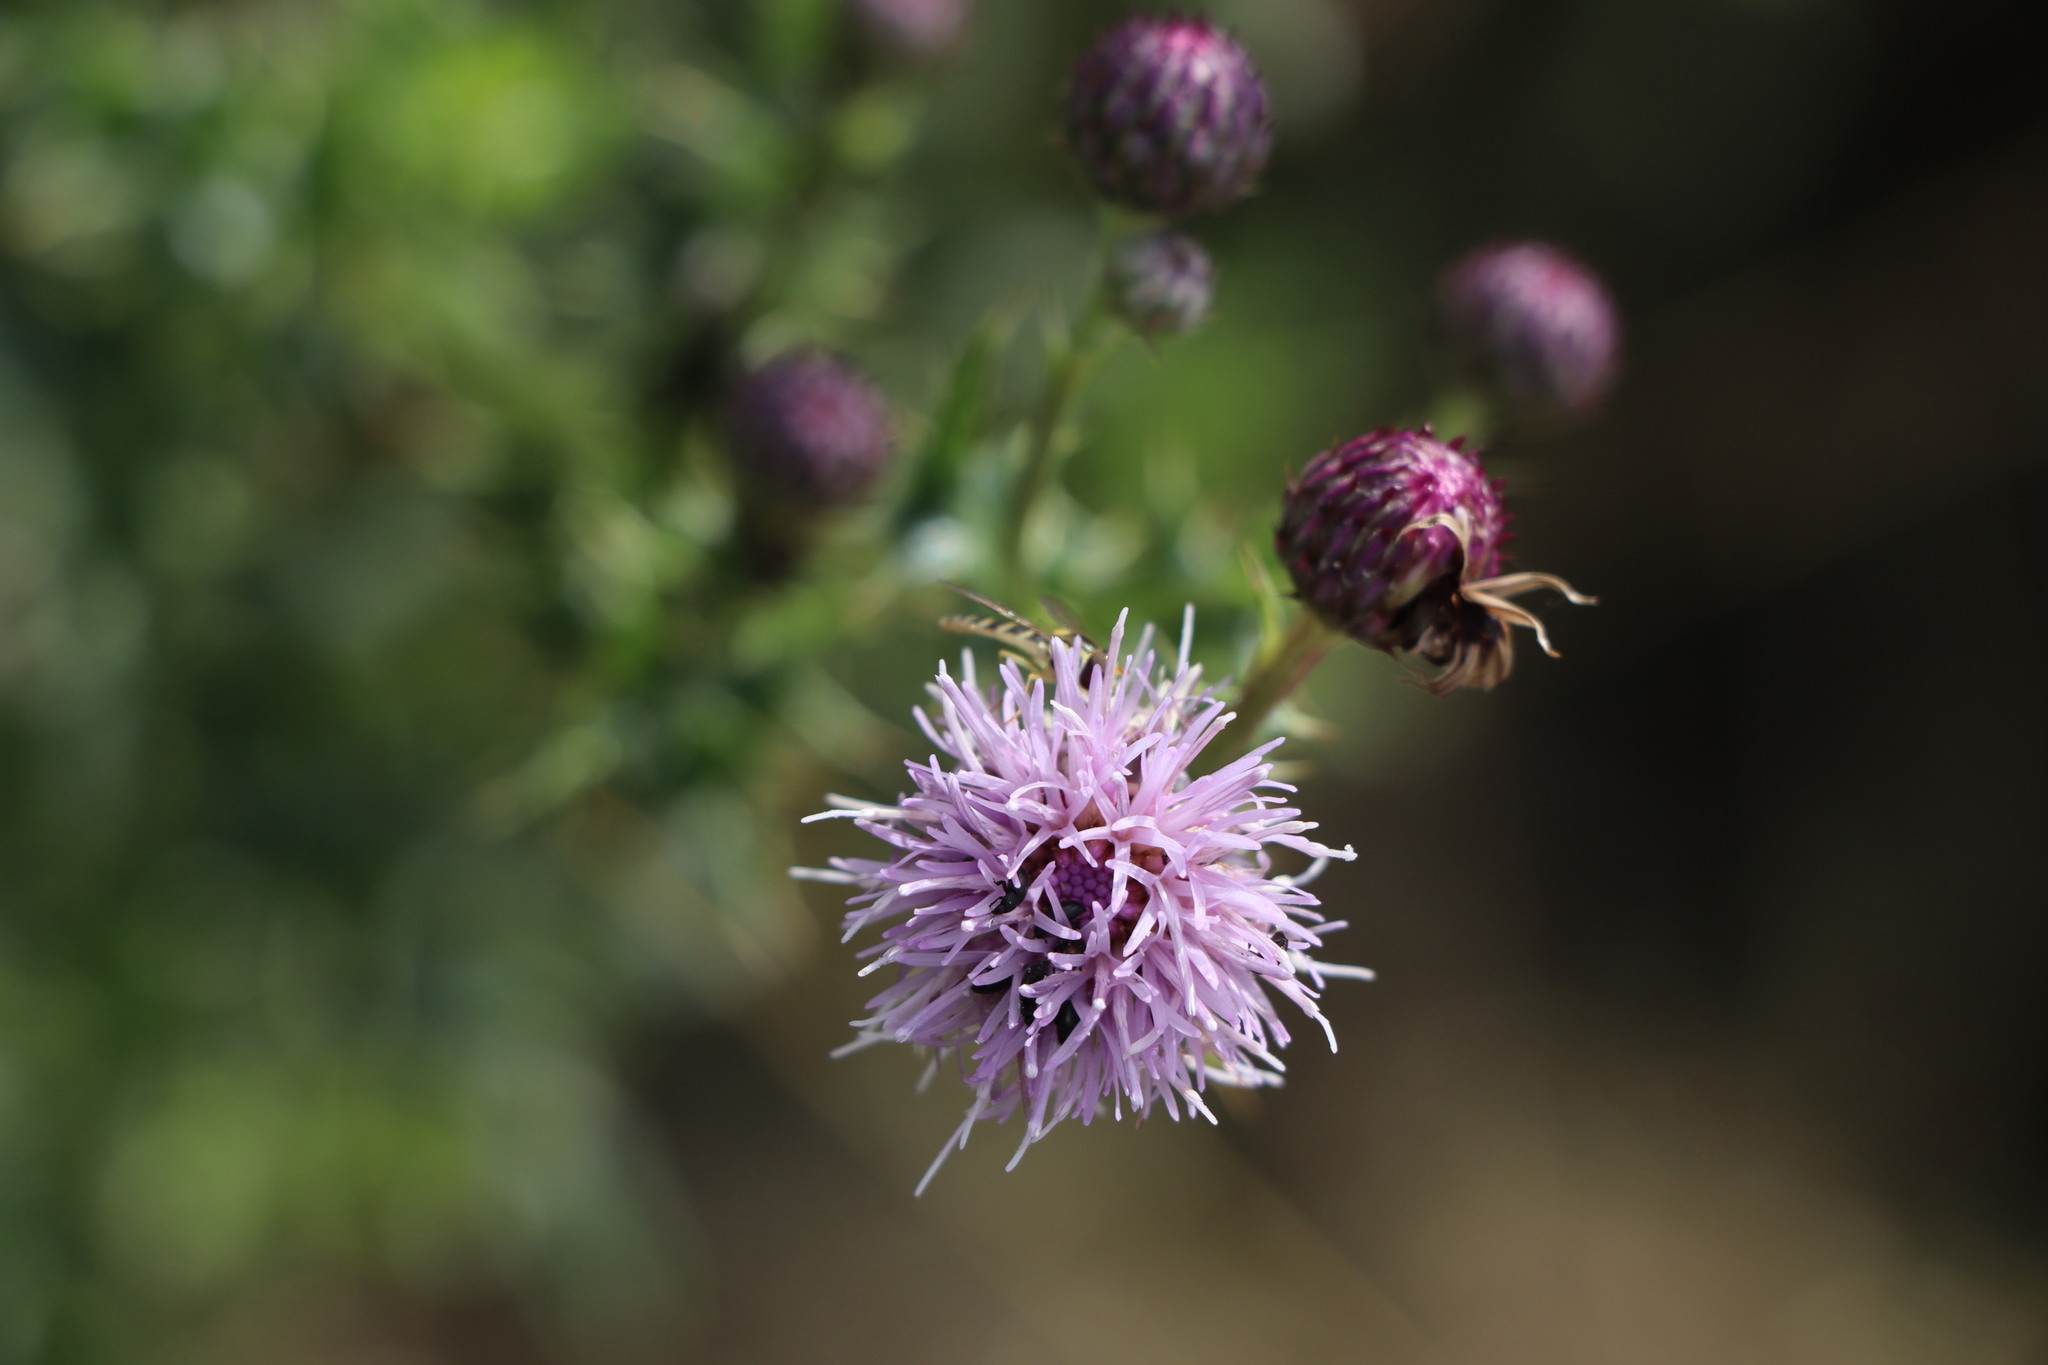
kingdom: Animalia
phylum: Arthropoda
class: Insecta
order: Diptera
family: Syrphidae
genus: Sphaerophoria
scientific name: Sphaerophoria
